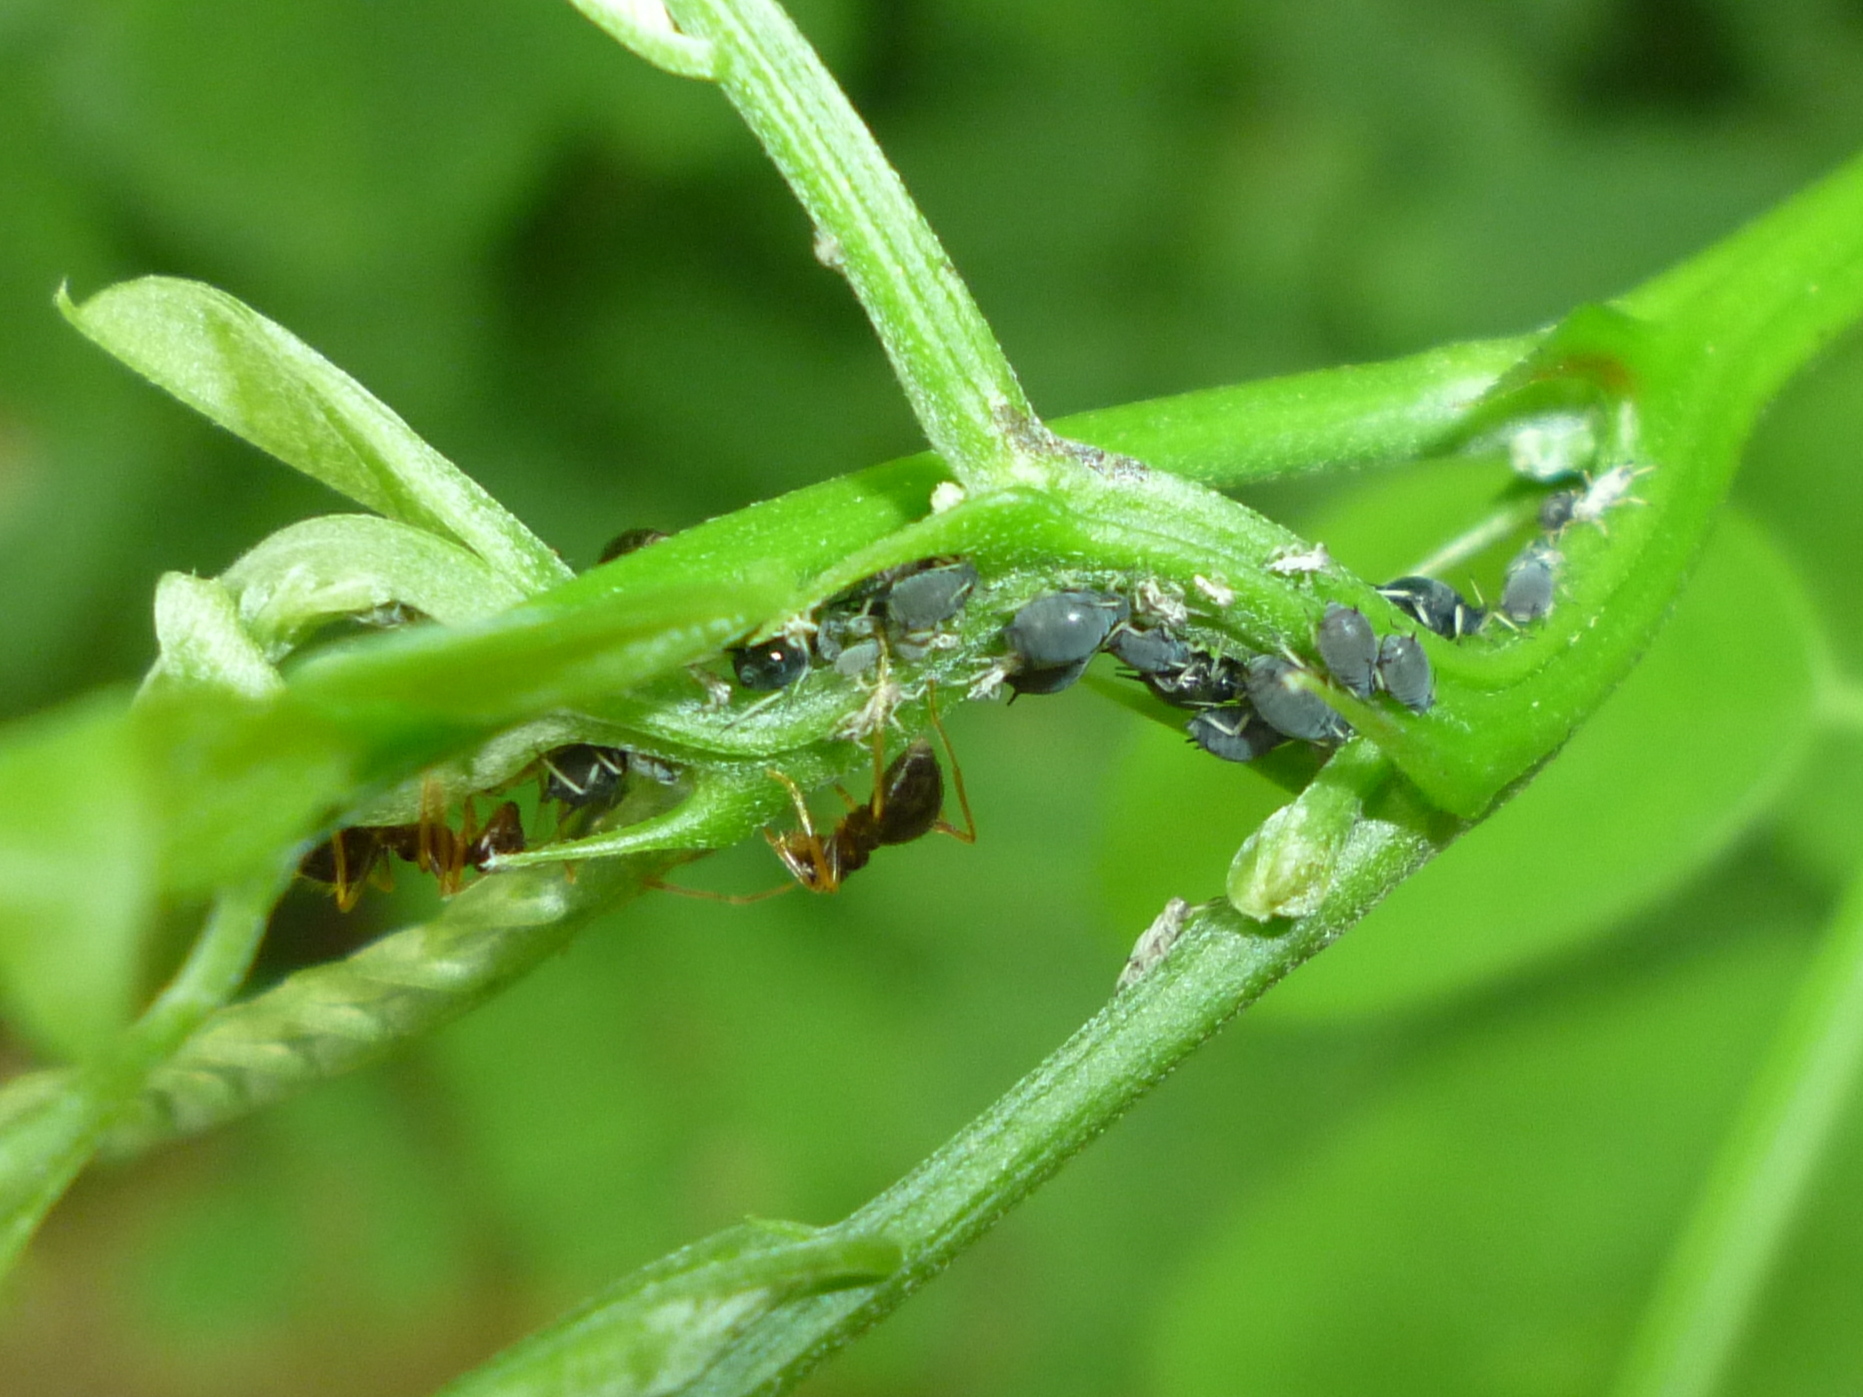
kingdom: Animalia
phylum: Arthropoda
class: Insecta
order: Hemiptera
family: Aphididae
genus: Aphis
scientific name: Aphis craccivora
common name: Cowpea aphid
